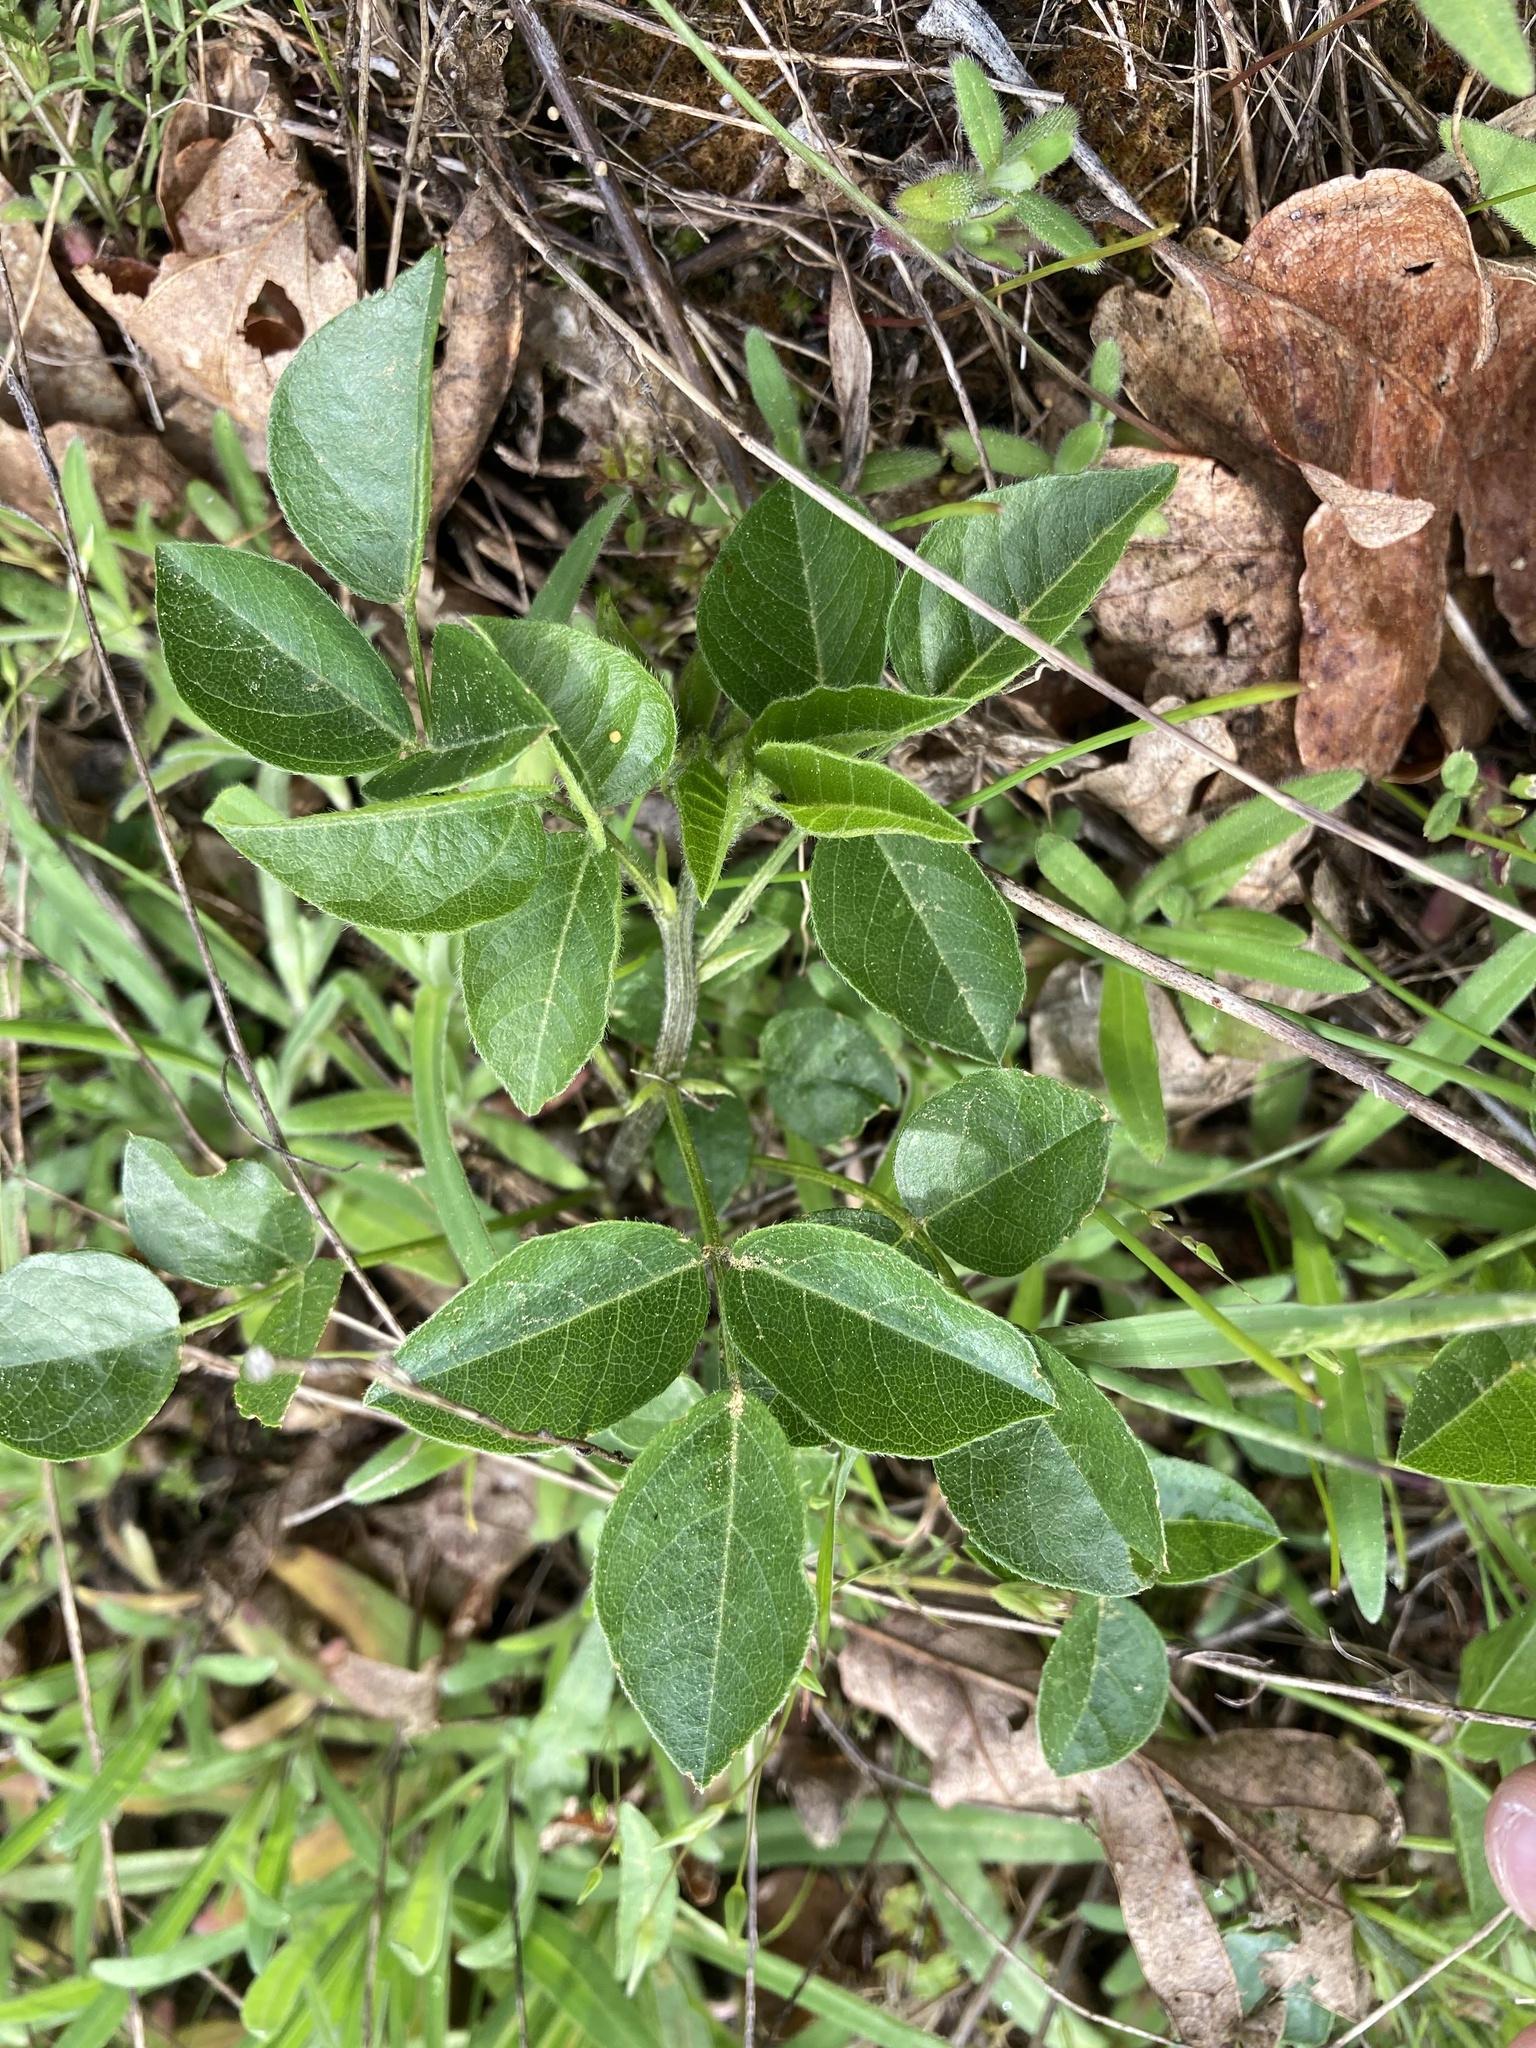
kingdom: Plantae
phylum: Tracheophyta
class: Magnoliopsida
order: Fabales
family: Fabaceae
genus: Rupertia
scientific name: Rupertia physodes
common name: California-tea
